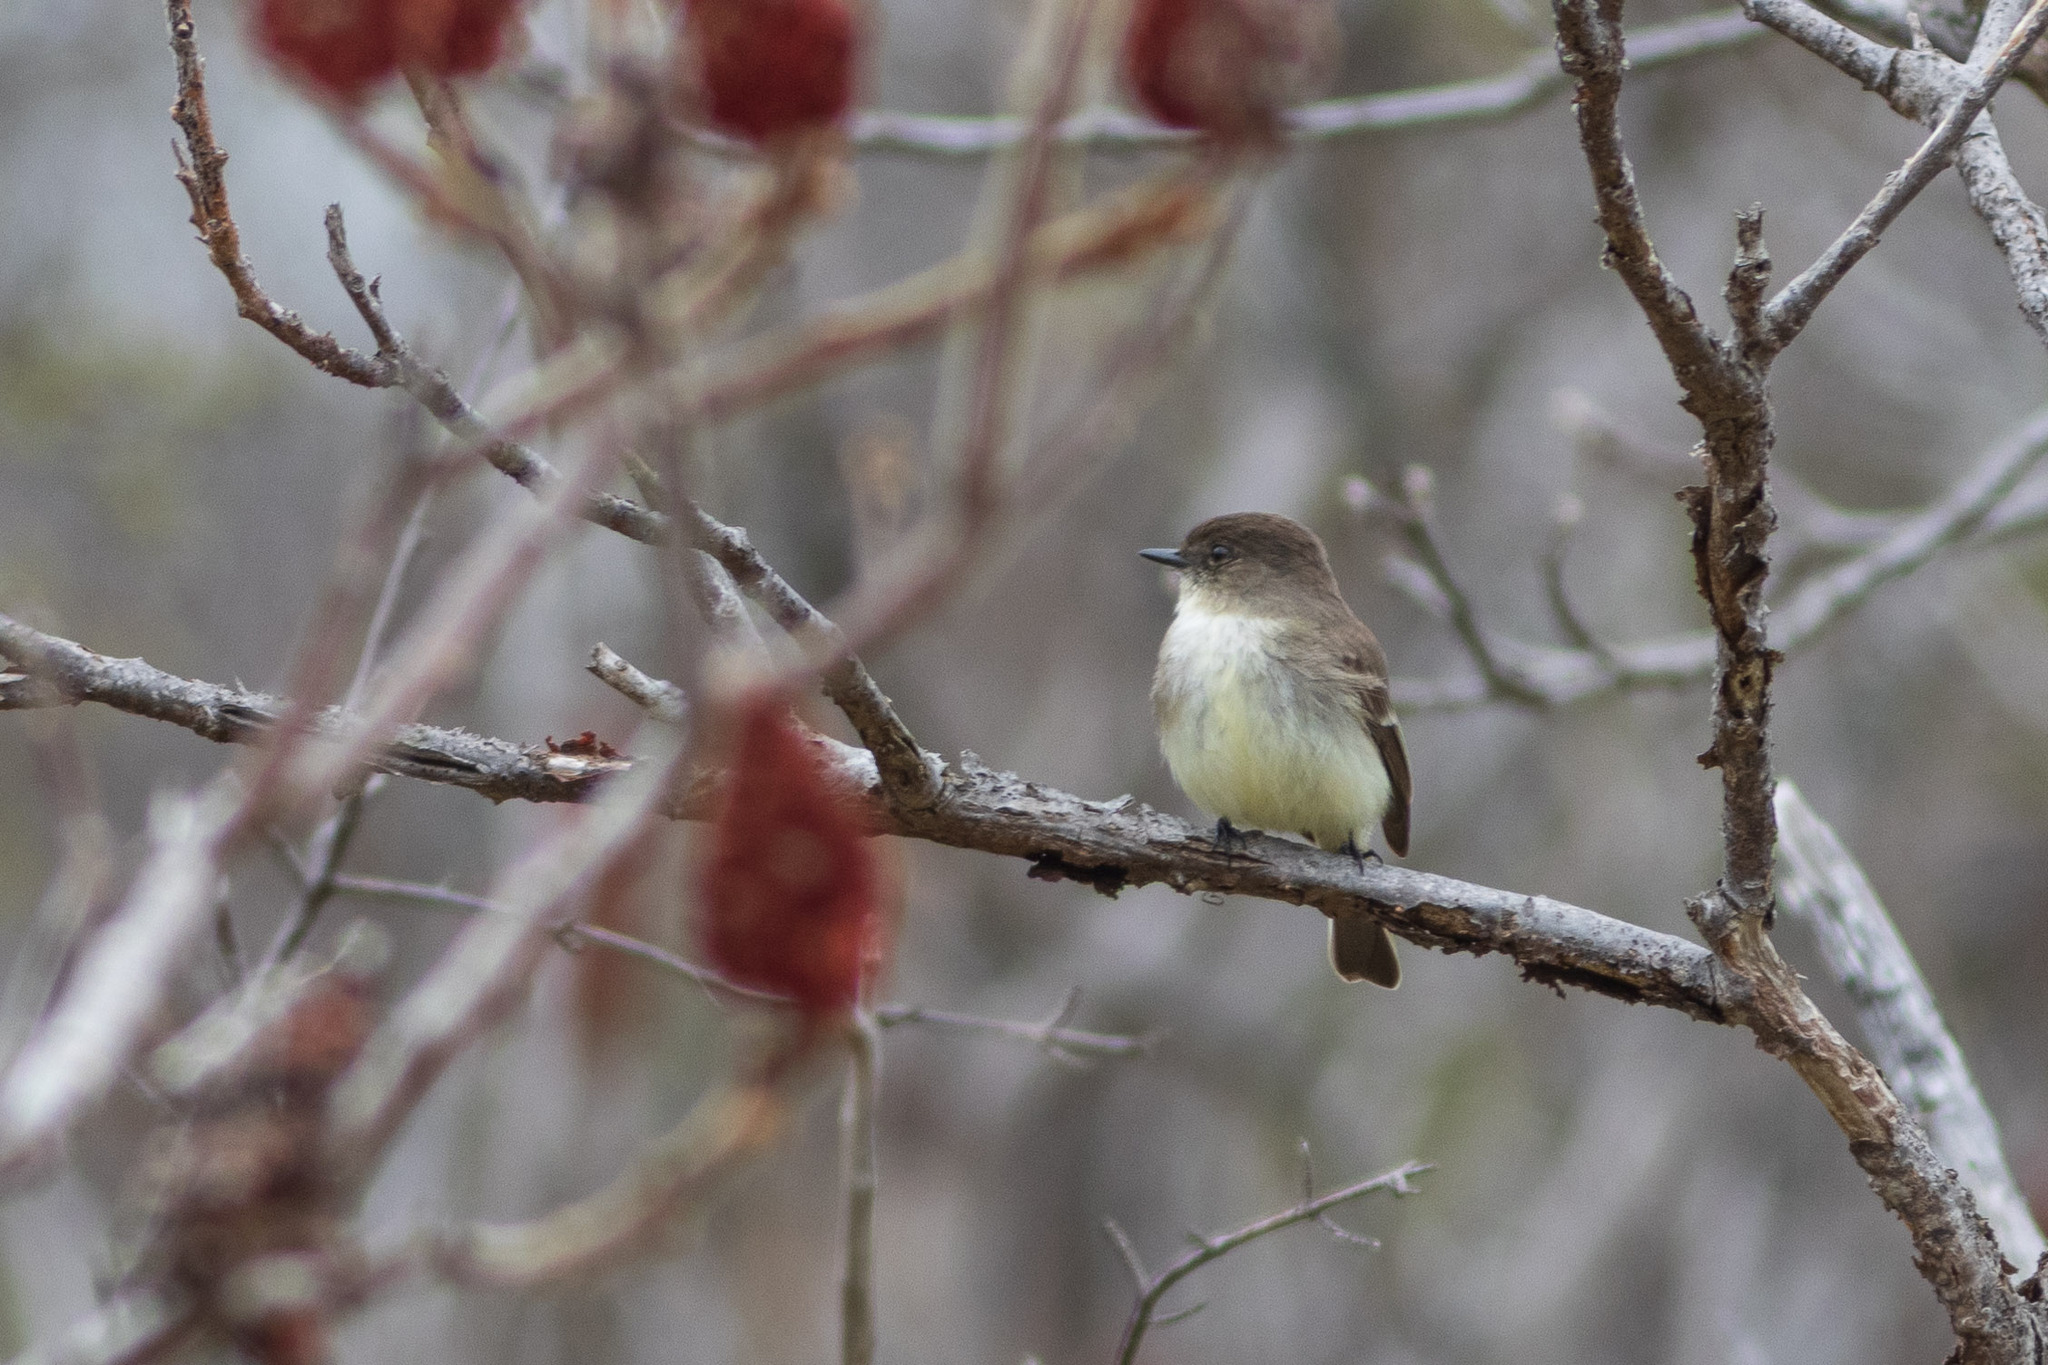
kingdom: Animalia
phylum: Chordata
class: Aves
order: Passeriformes
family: Tyrannidae
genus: Sayornis
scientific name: Sayornis phoebe
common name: Eastern phoebe
